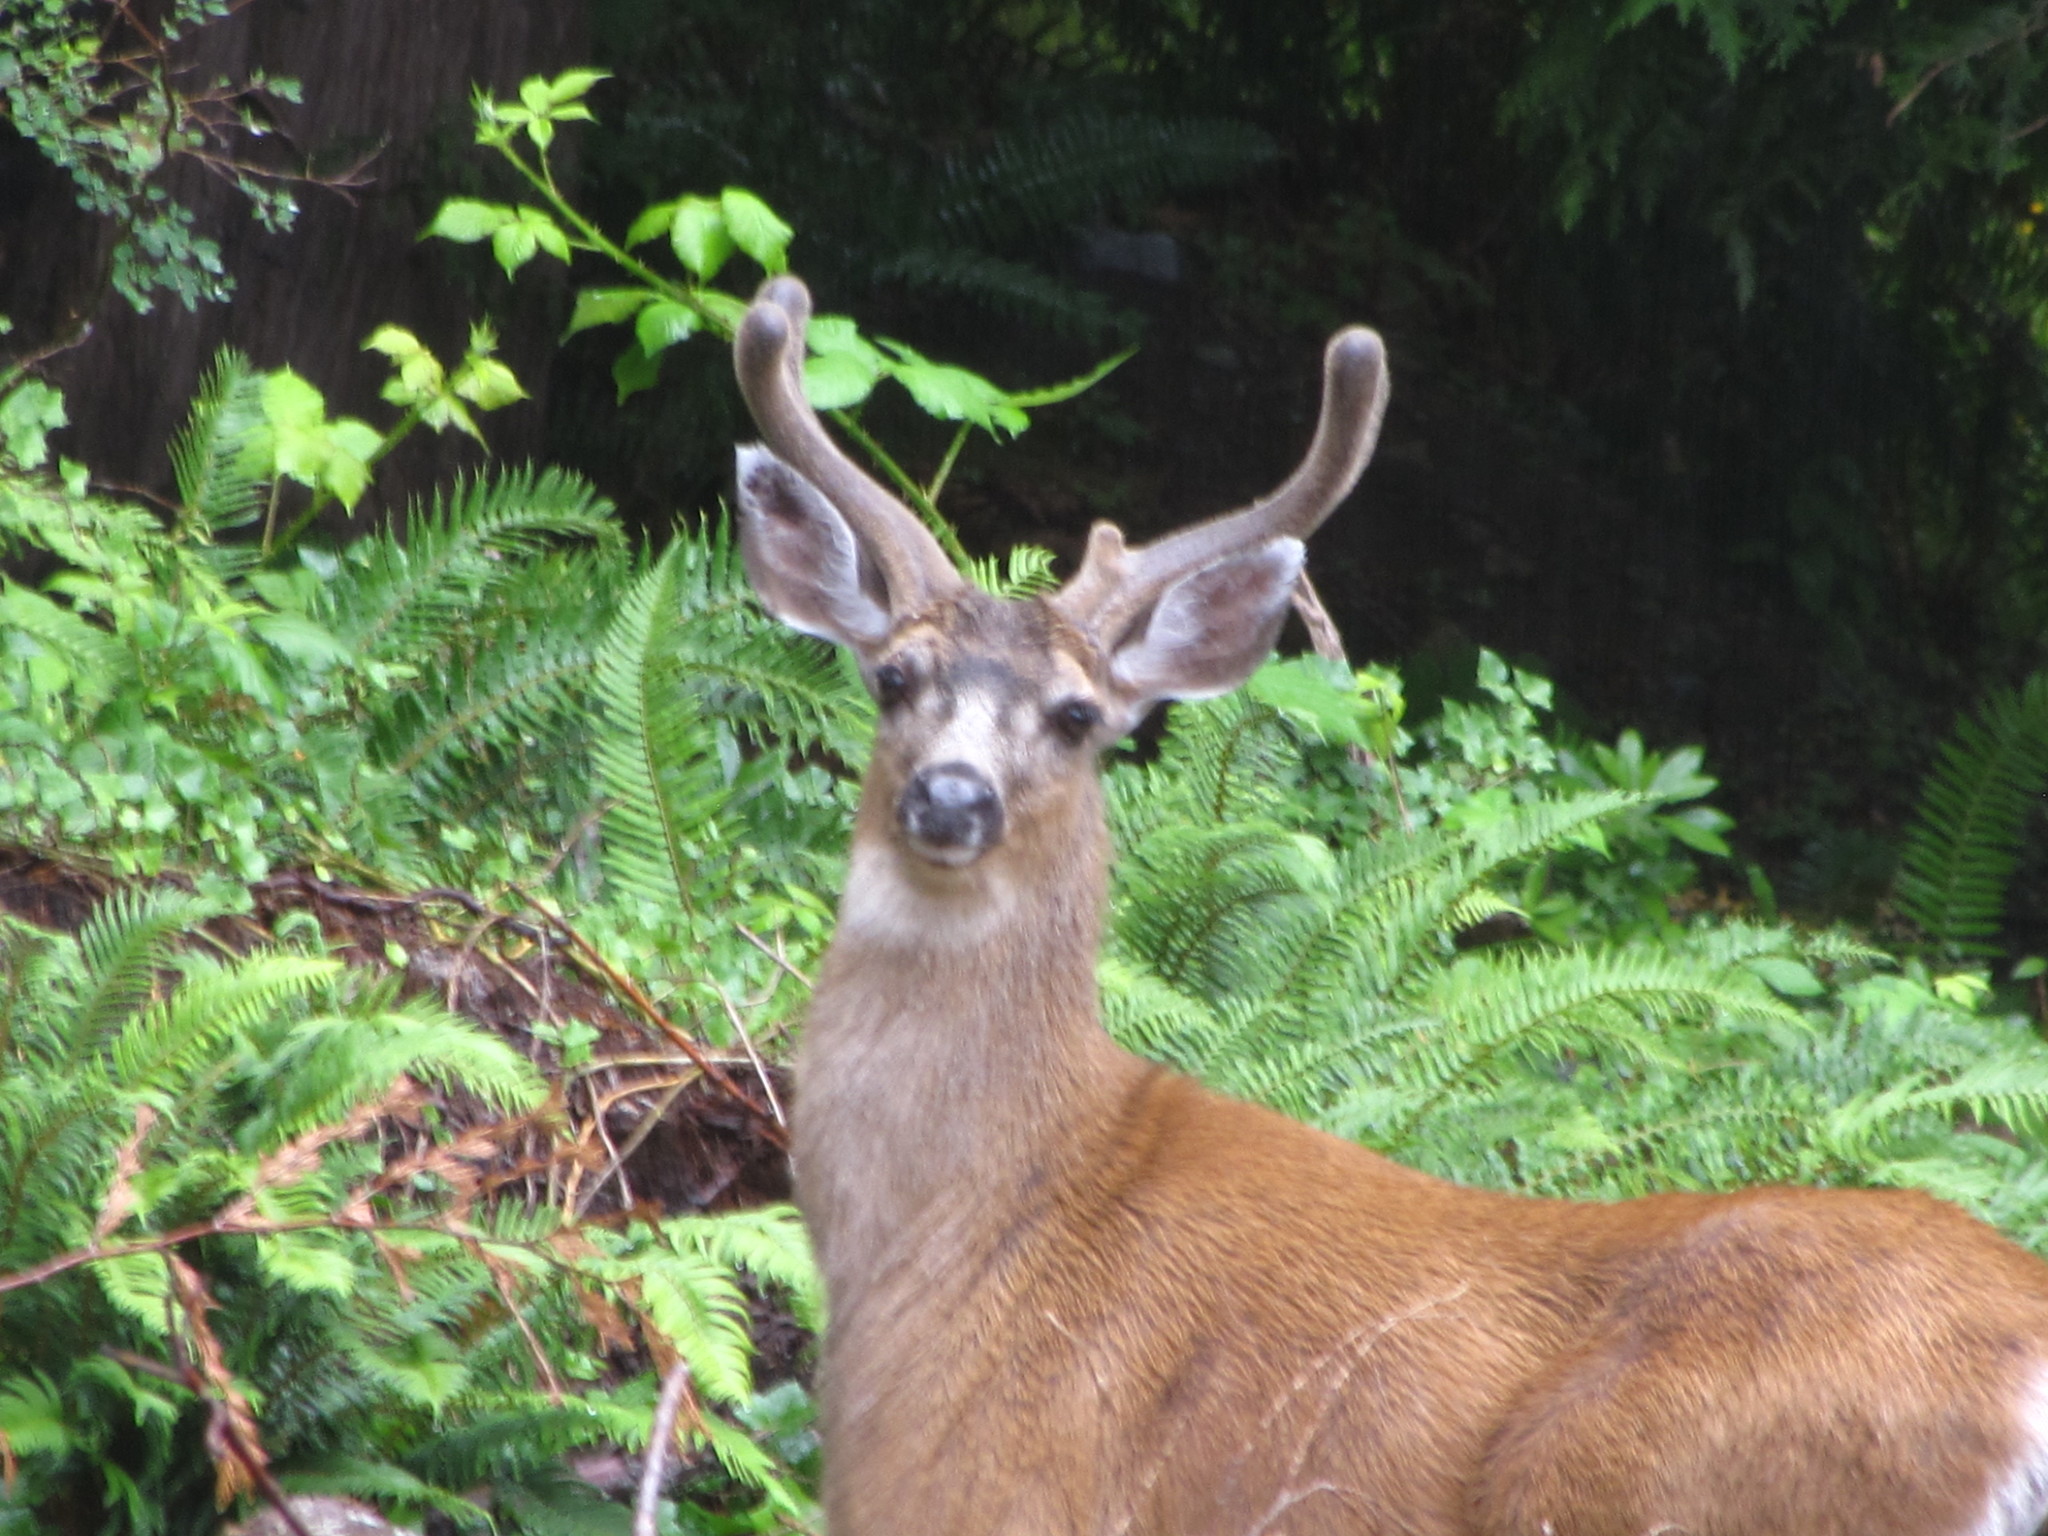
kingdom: Animalia
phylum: Chordata
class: Mammalia
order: Artiodactyla
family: Cervidae
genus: Odocoileus
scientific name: Odocoileus hemionus
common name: Mule deer
